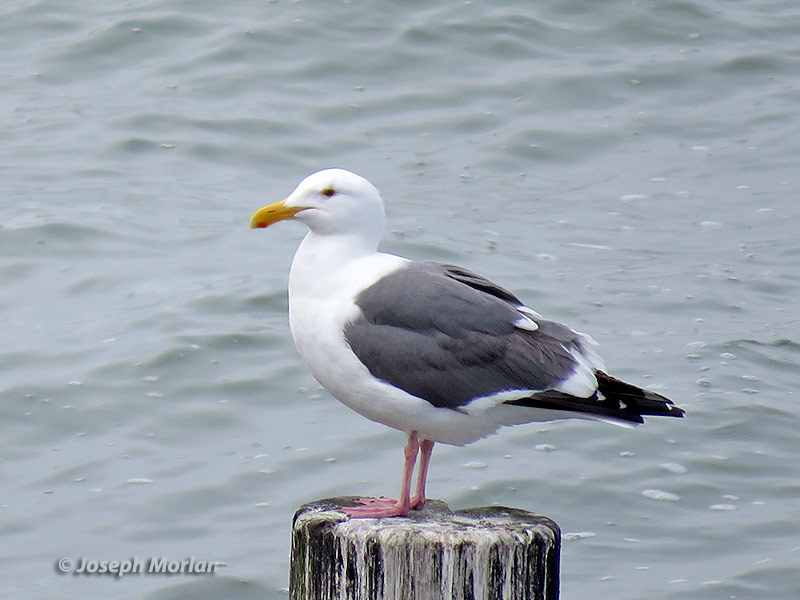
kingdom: Animalia
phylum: Chordata
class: Aves
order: Charadriiformes
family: Laridae
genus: Larus
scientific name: Larus occidentalis
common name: Western gull
